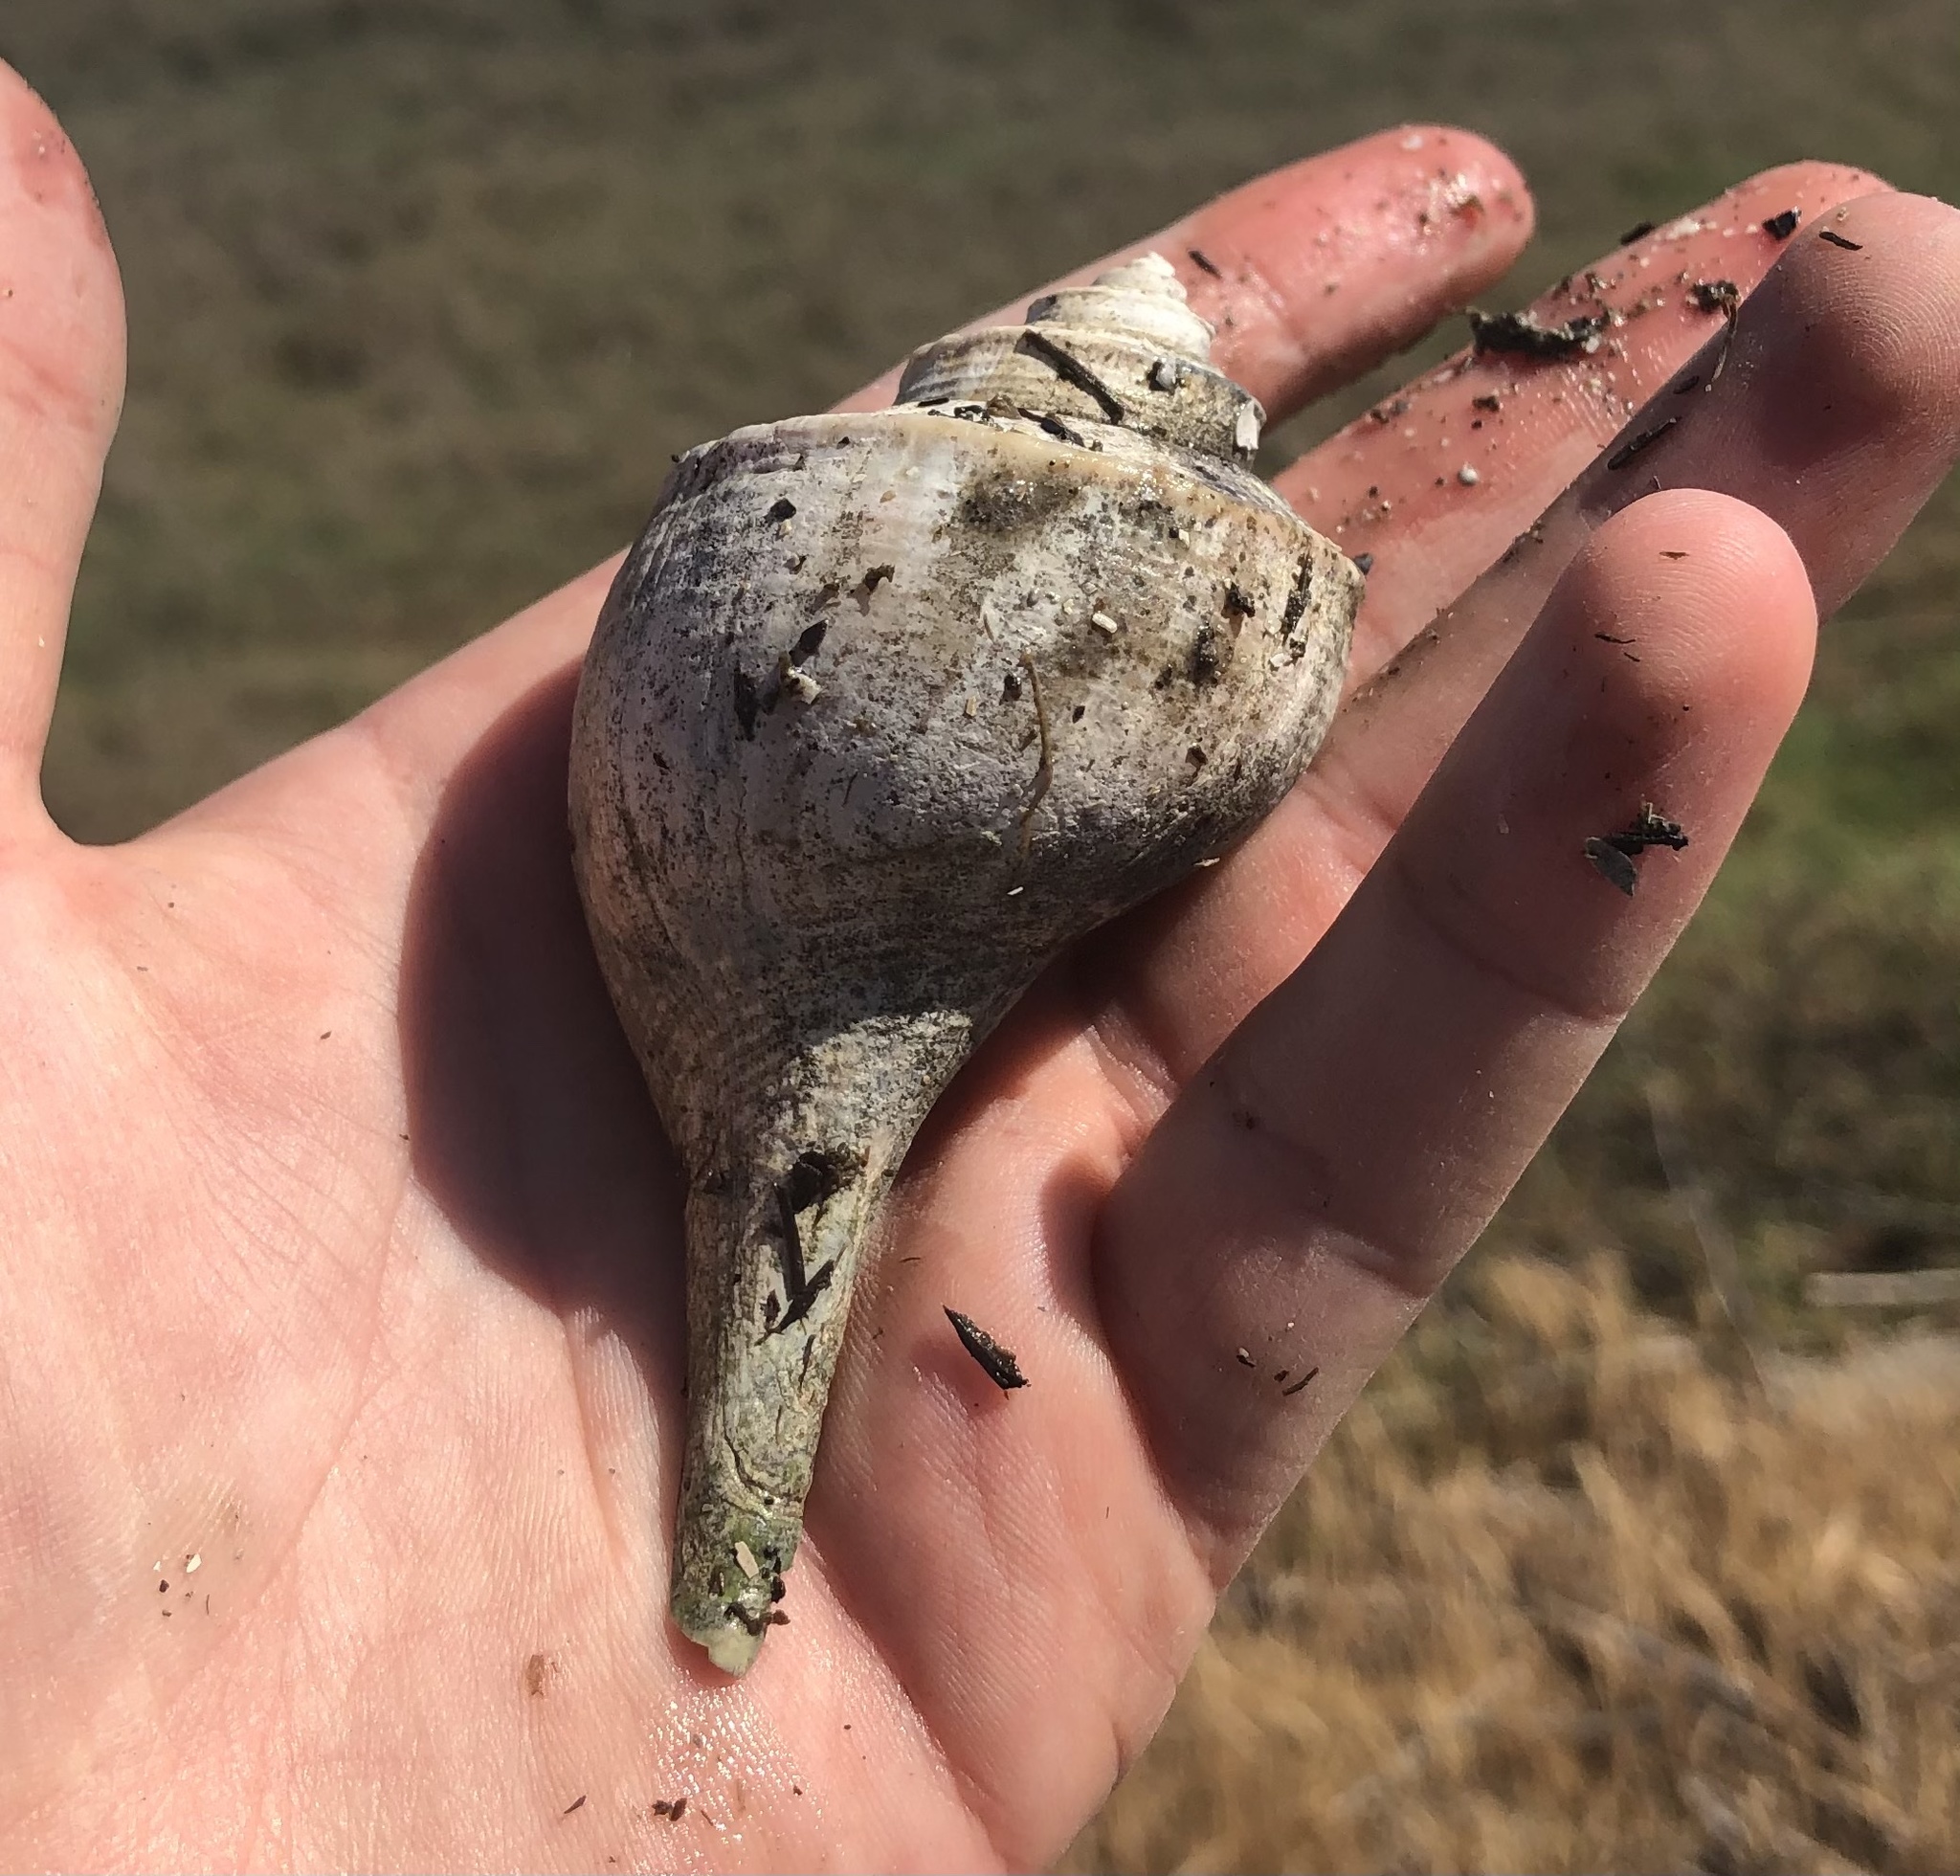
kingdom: Animalia
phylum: Mollusca
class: Gastropoda
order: Neogastropoda
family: Busyconidae
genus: Busycotypus
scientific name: Busycotypus canaliculatus
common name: Channeled whelk
